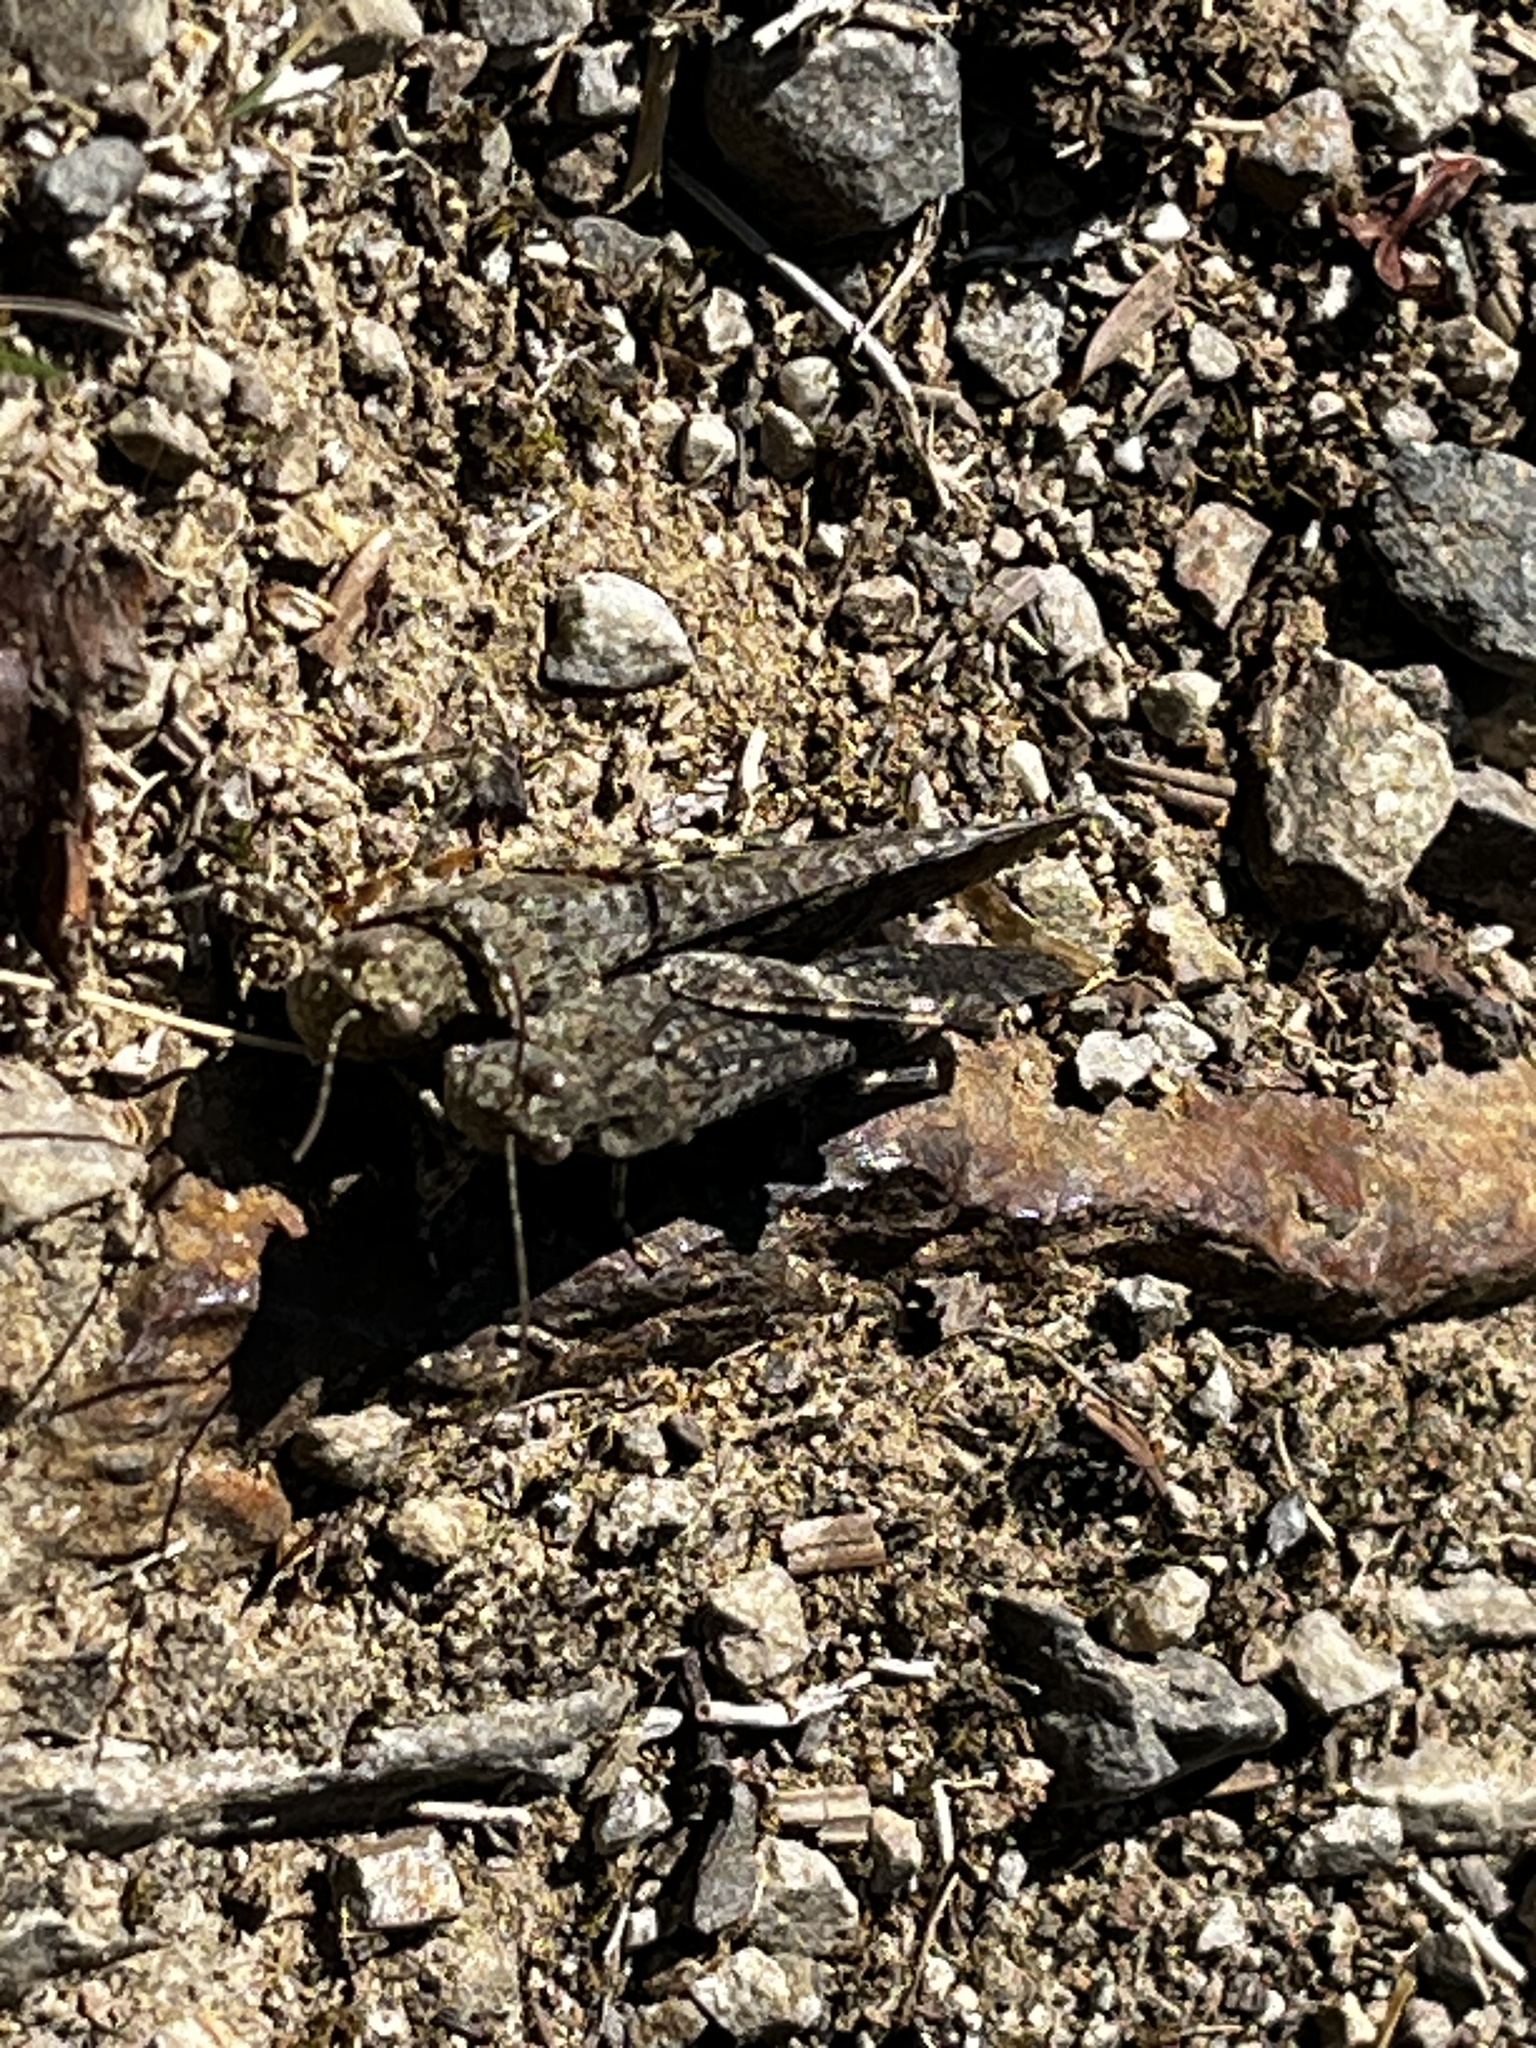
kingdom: Animalia
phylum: Arthropoda
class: Insecta
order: Orthoptera
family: Acrididae
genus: Trimerotropis
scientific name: Trimerotropis verruculata
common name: Crackling forest grasshopper
